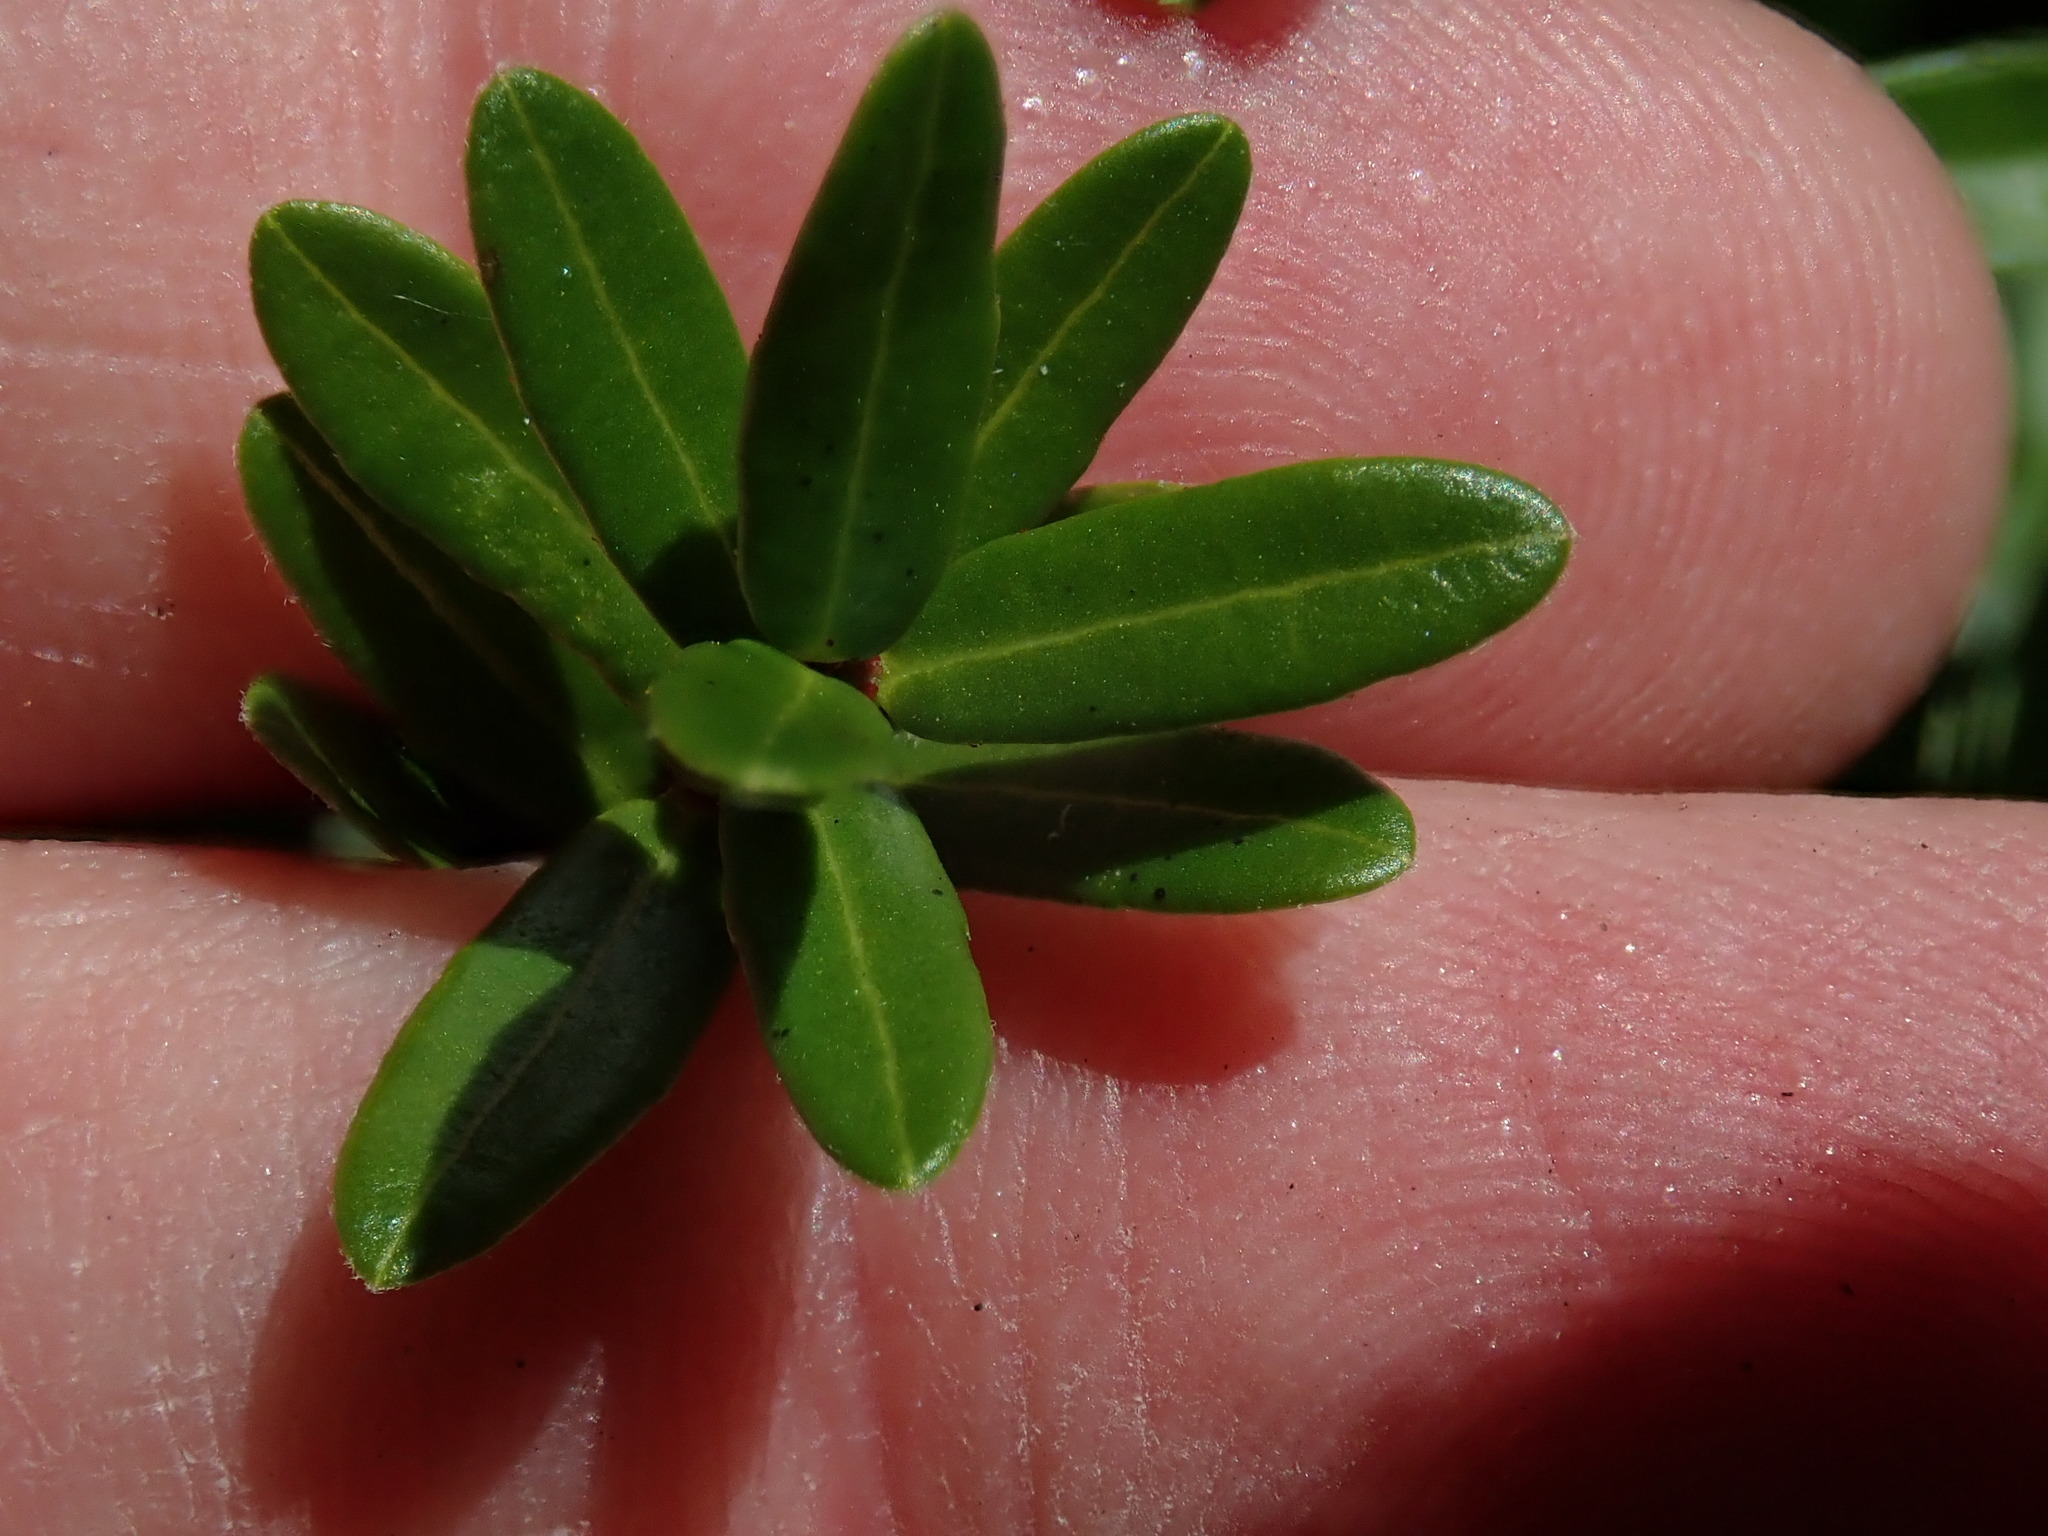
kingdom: Plantae
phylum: Tracheophyta
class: Magnoliopsida
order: Ericales
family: Ericaceae
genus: Vaccinium
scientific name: Vaccinium macrocarpon
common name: American cranberry
